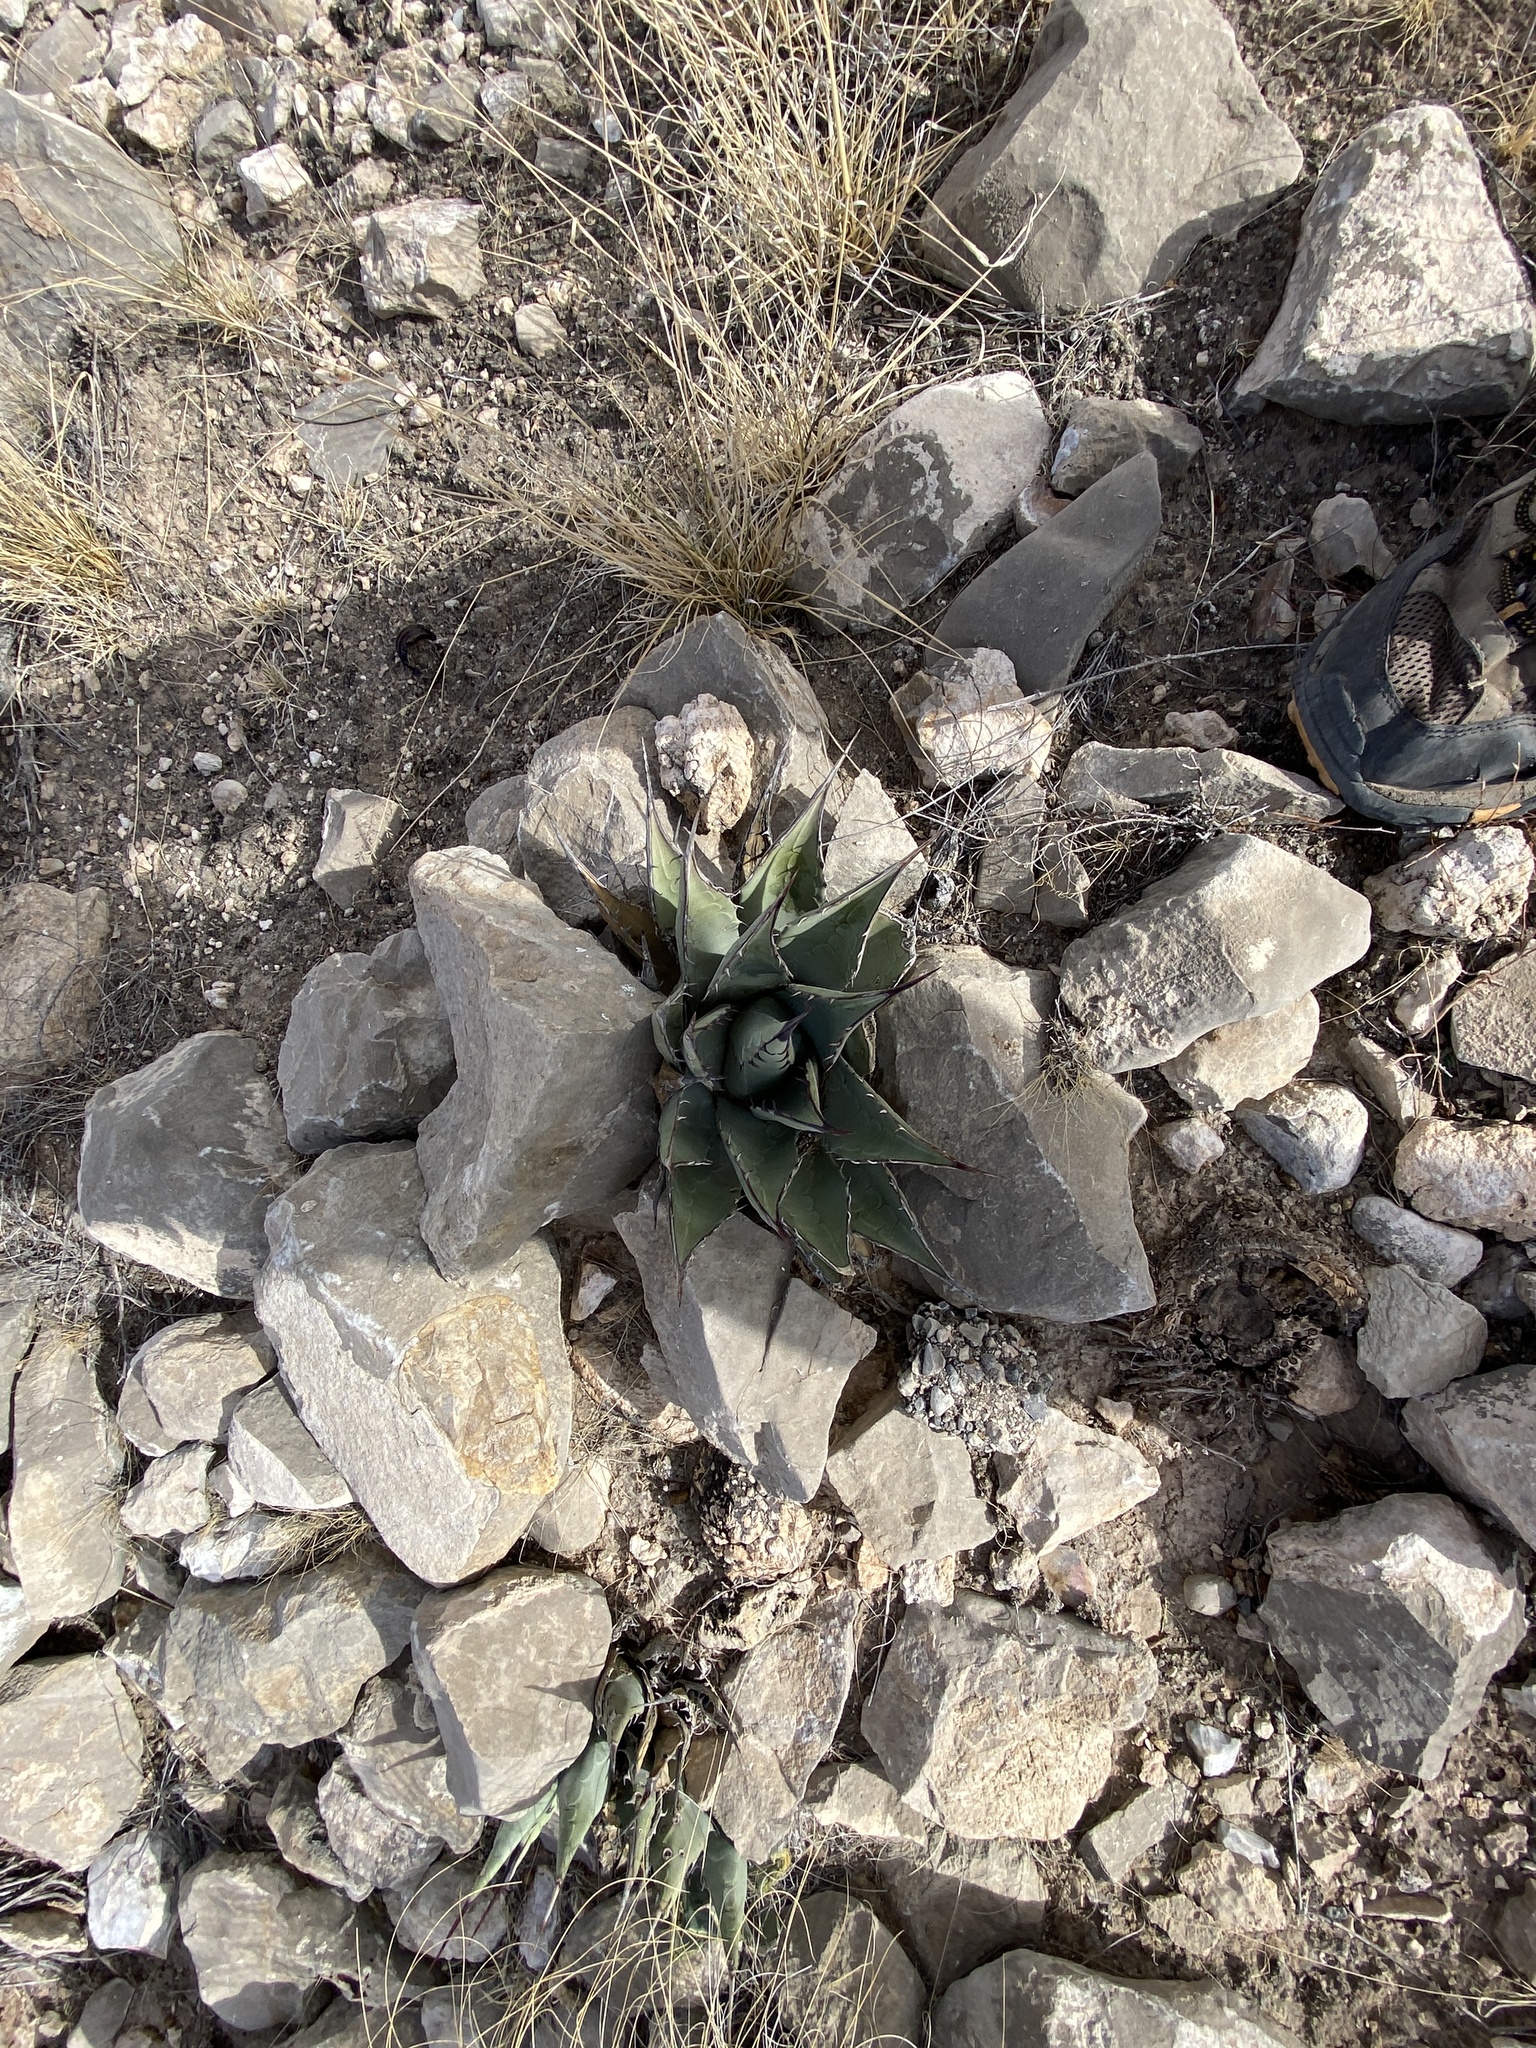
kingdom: Plantae
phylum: Tracheophyta
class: Liliopsida
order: Asparagales
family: Asparagaceae
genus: Agave
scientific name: Agave parryi
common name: Parry's agave
